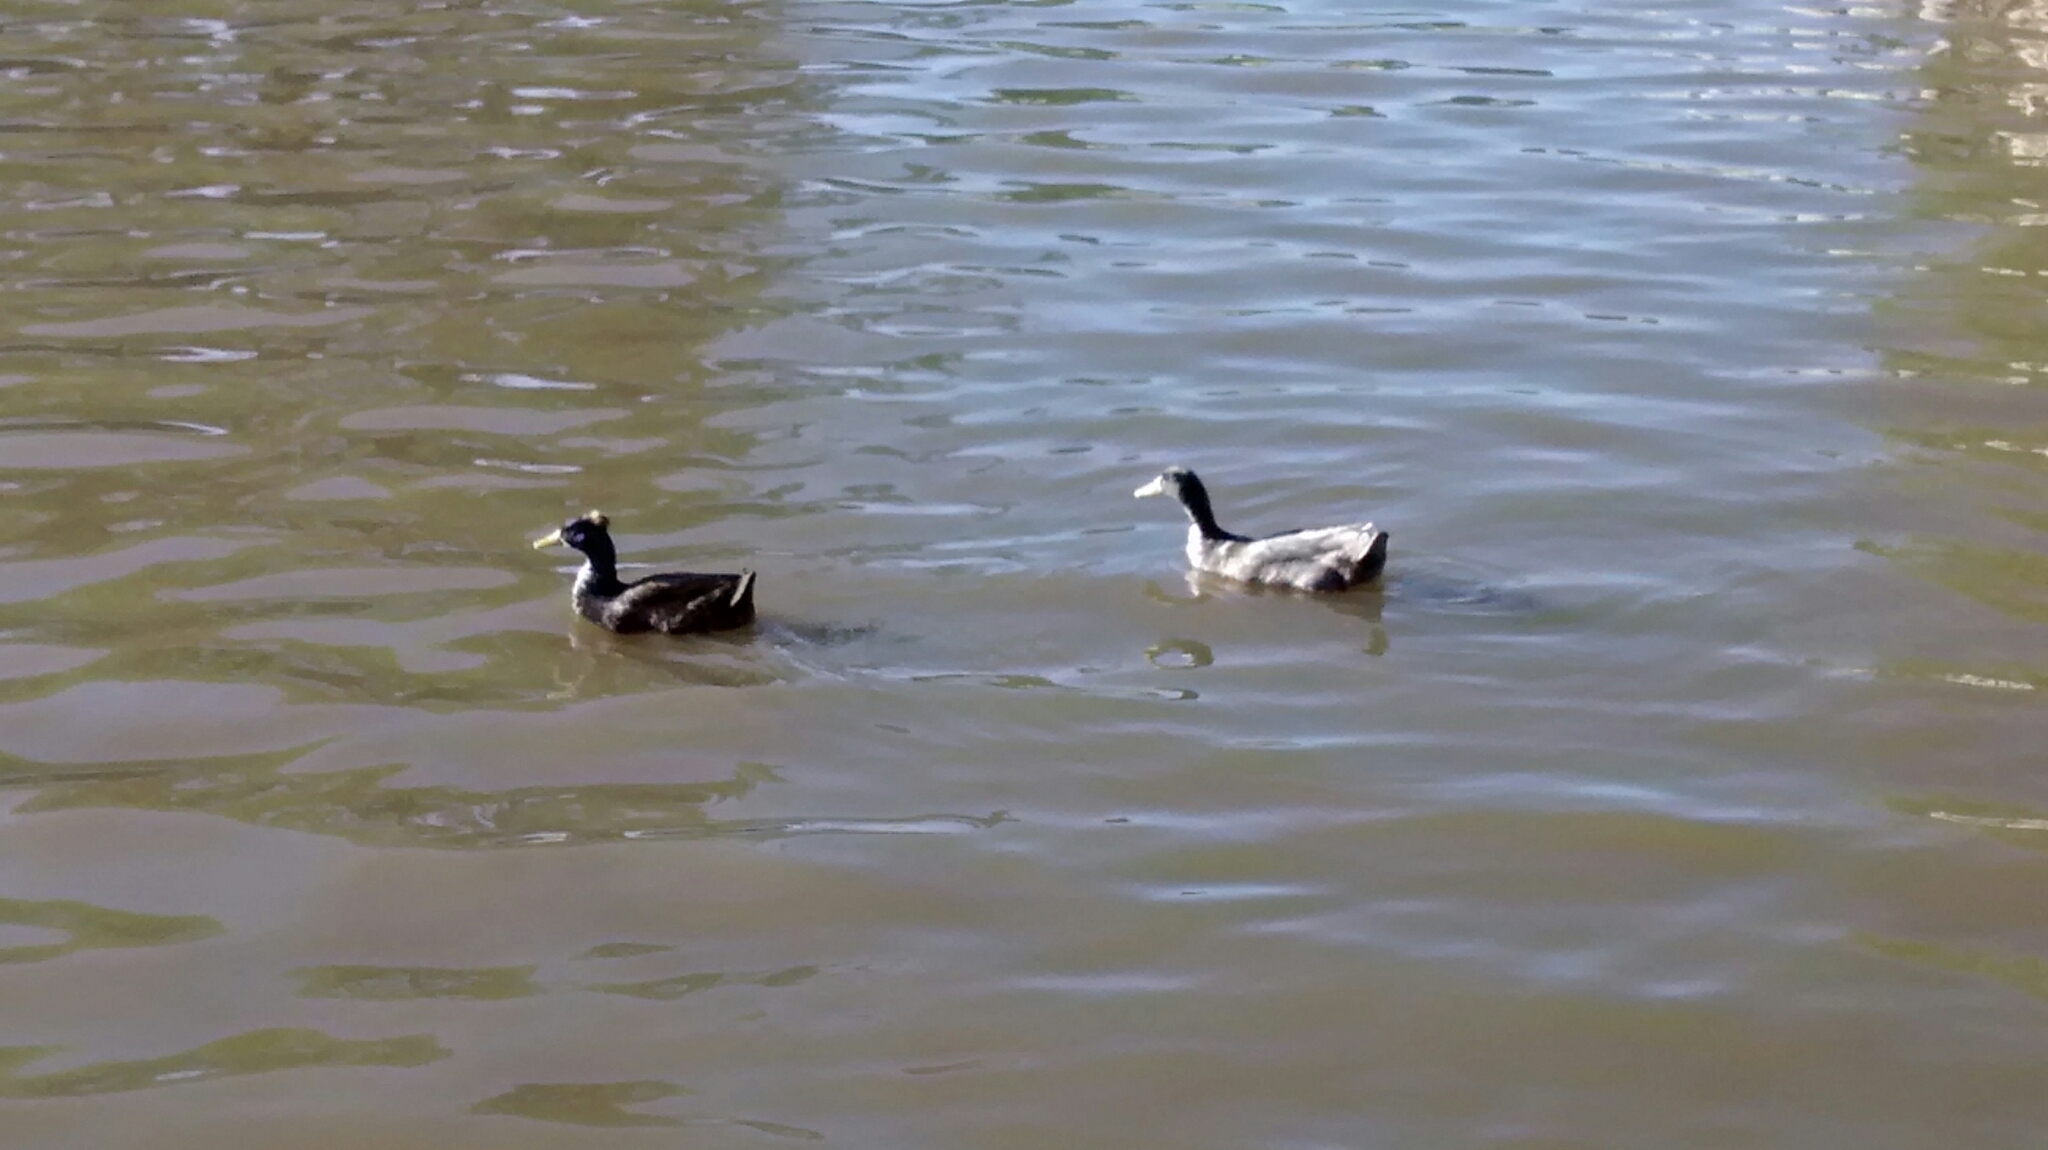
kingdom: Animalia
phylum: Chordata
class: Aves
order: Anseriformes
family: Anatidae
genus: Anas
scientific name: Anas platyrhynchos
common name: Mallard
